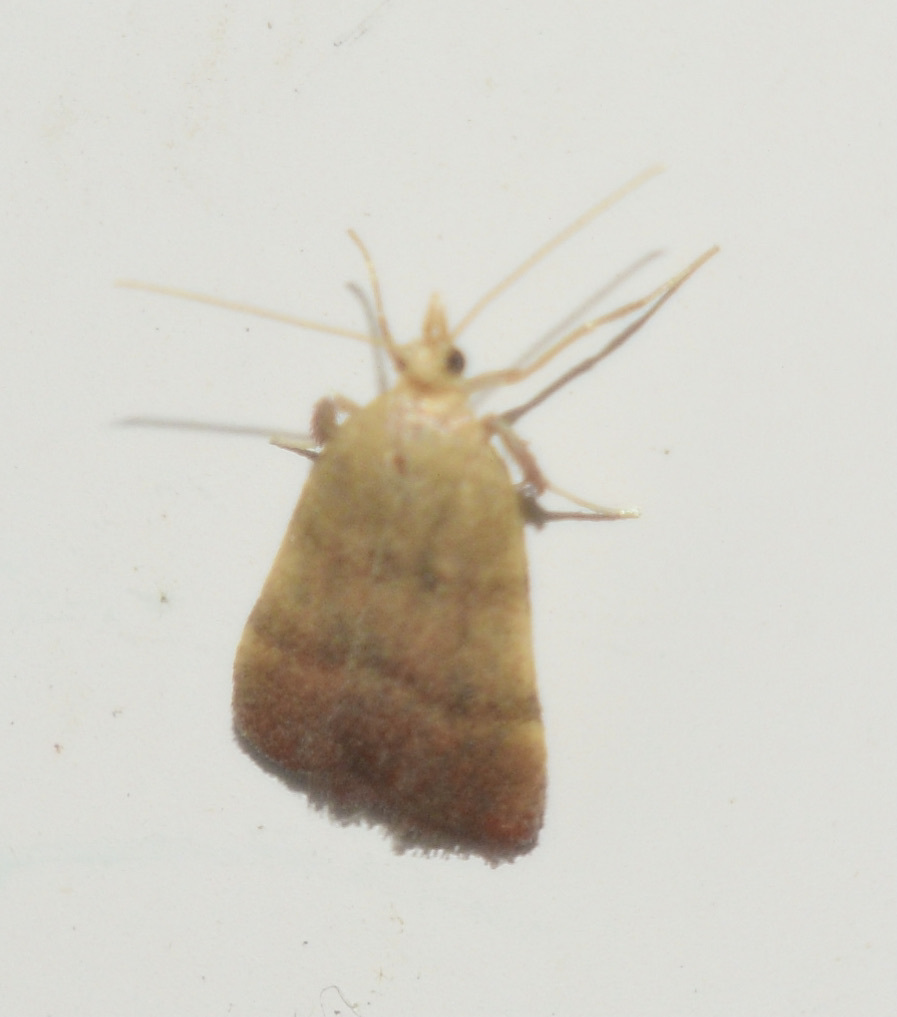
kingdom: Animalia
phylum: Arthropoda
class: Insecta
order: Lepidoptera
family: Pyralidae
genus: Condylolomia
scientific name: Condylolomia participialis
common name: Drab condylolomia moth
